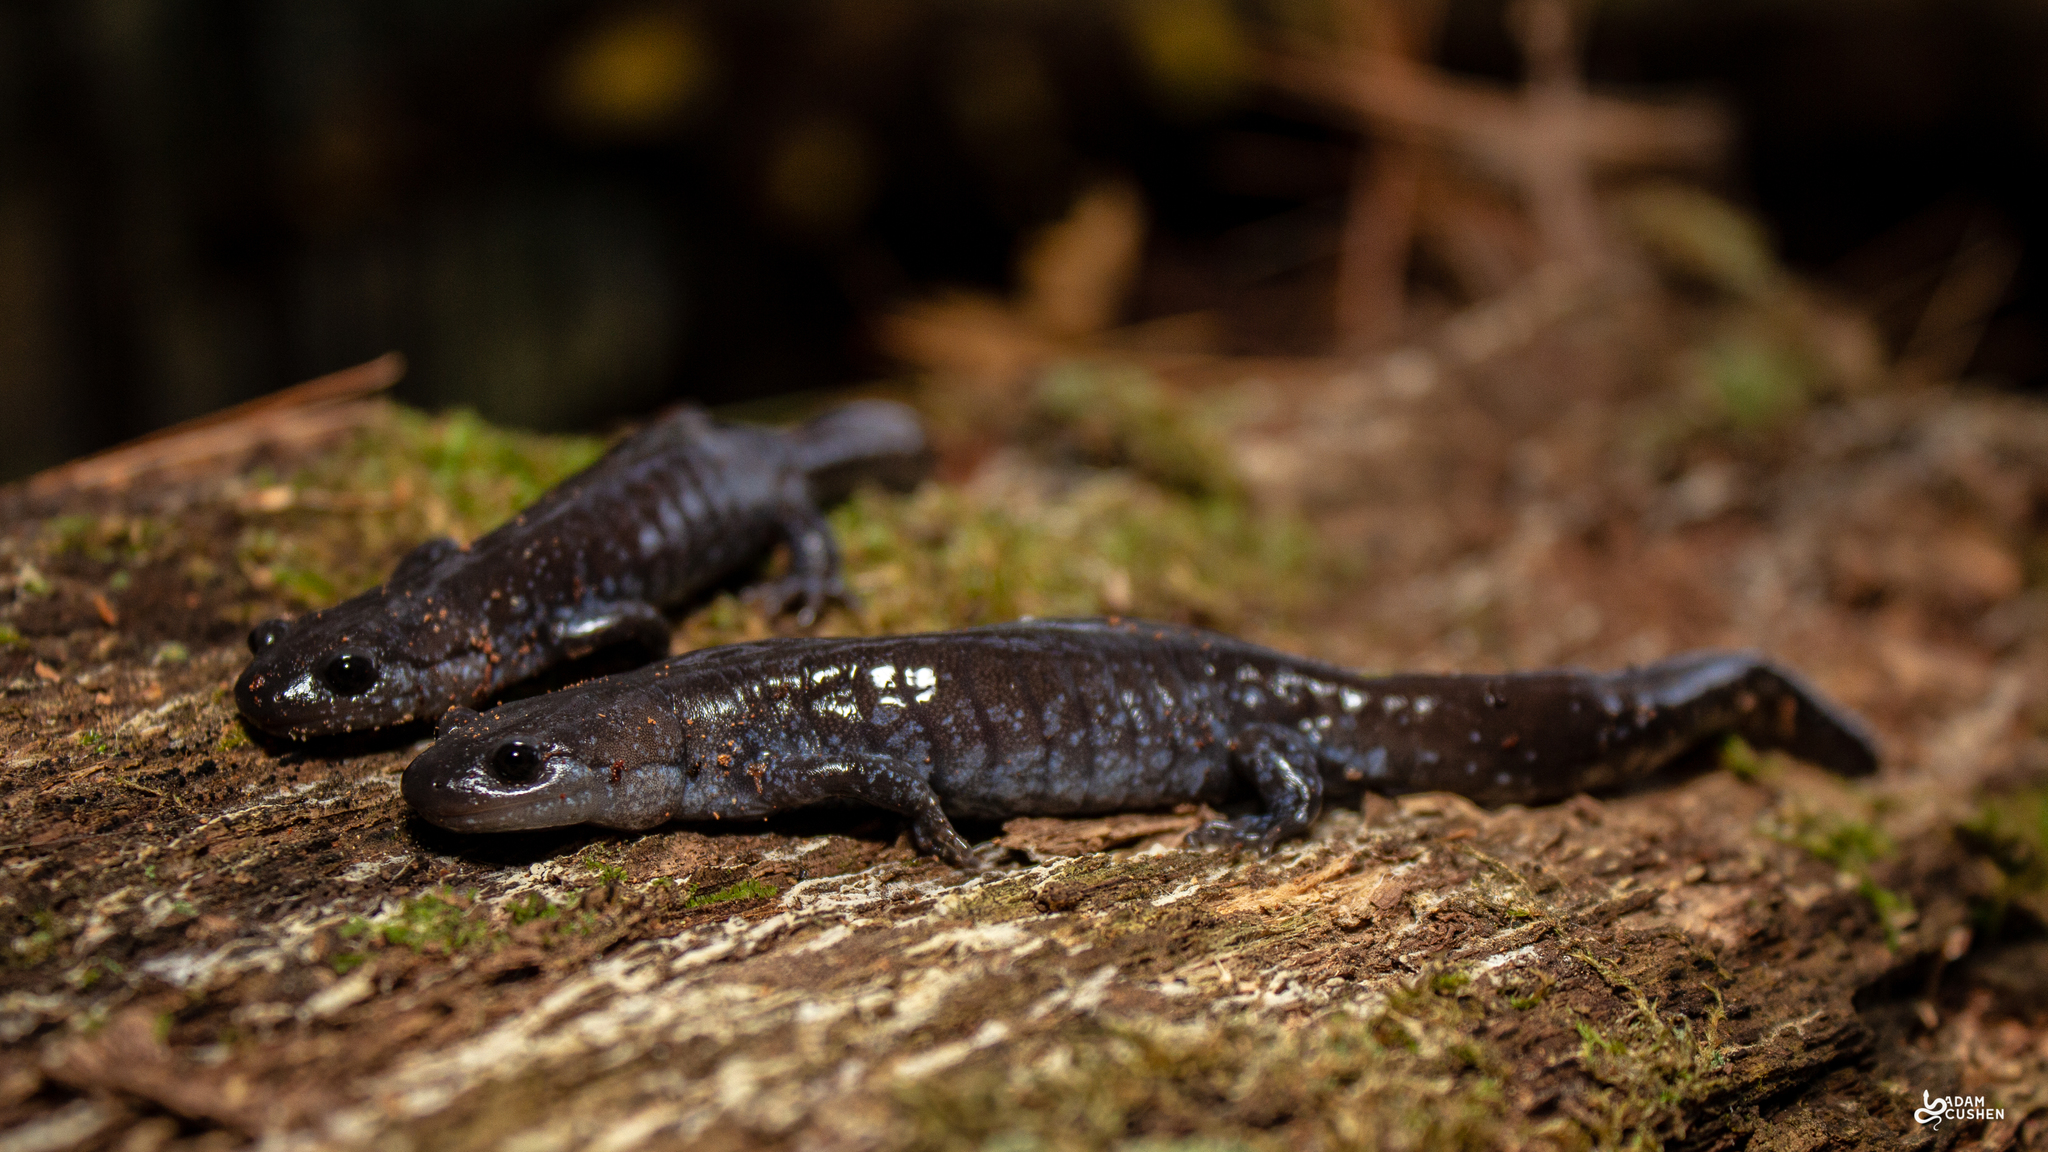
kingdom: Animalia
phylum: Chordata
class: Amphibia
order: Caudata
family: Ambystomatidae
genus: Ambystoma
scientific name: Ambystoma laterale
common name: Blue-spotted salamander
